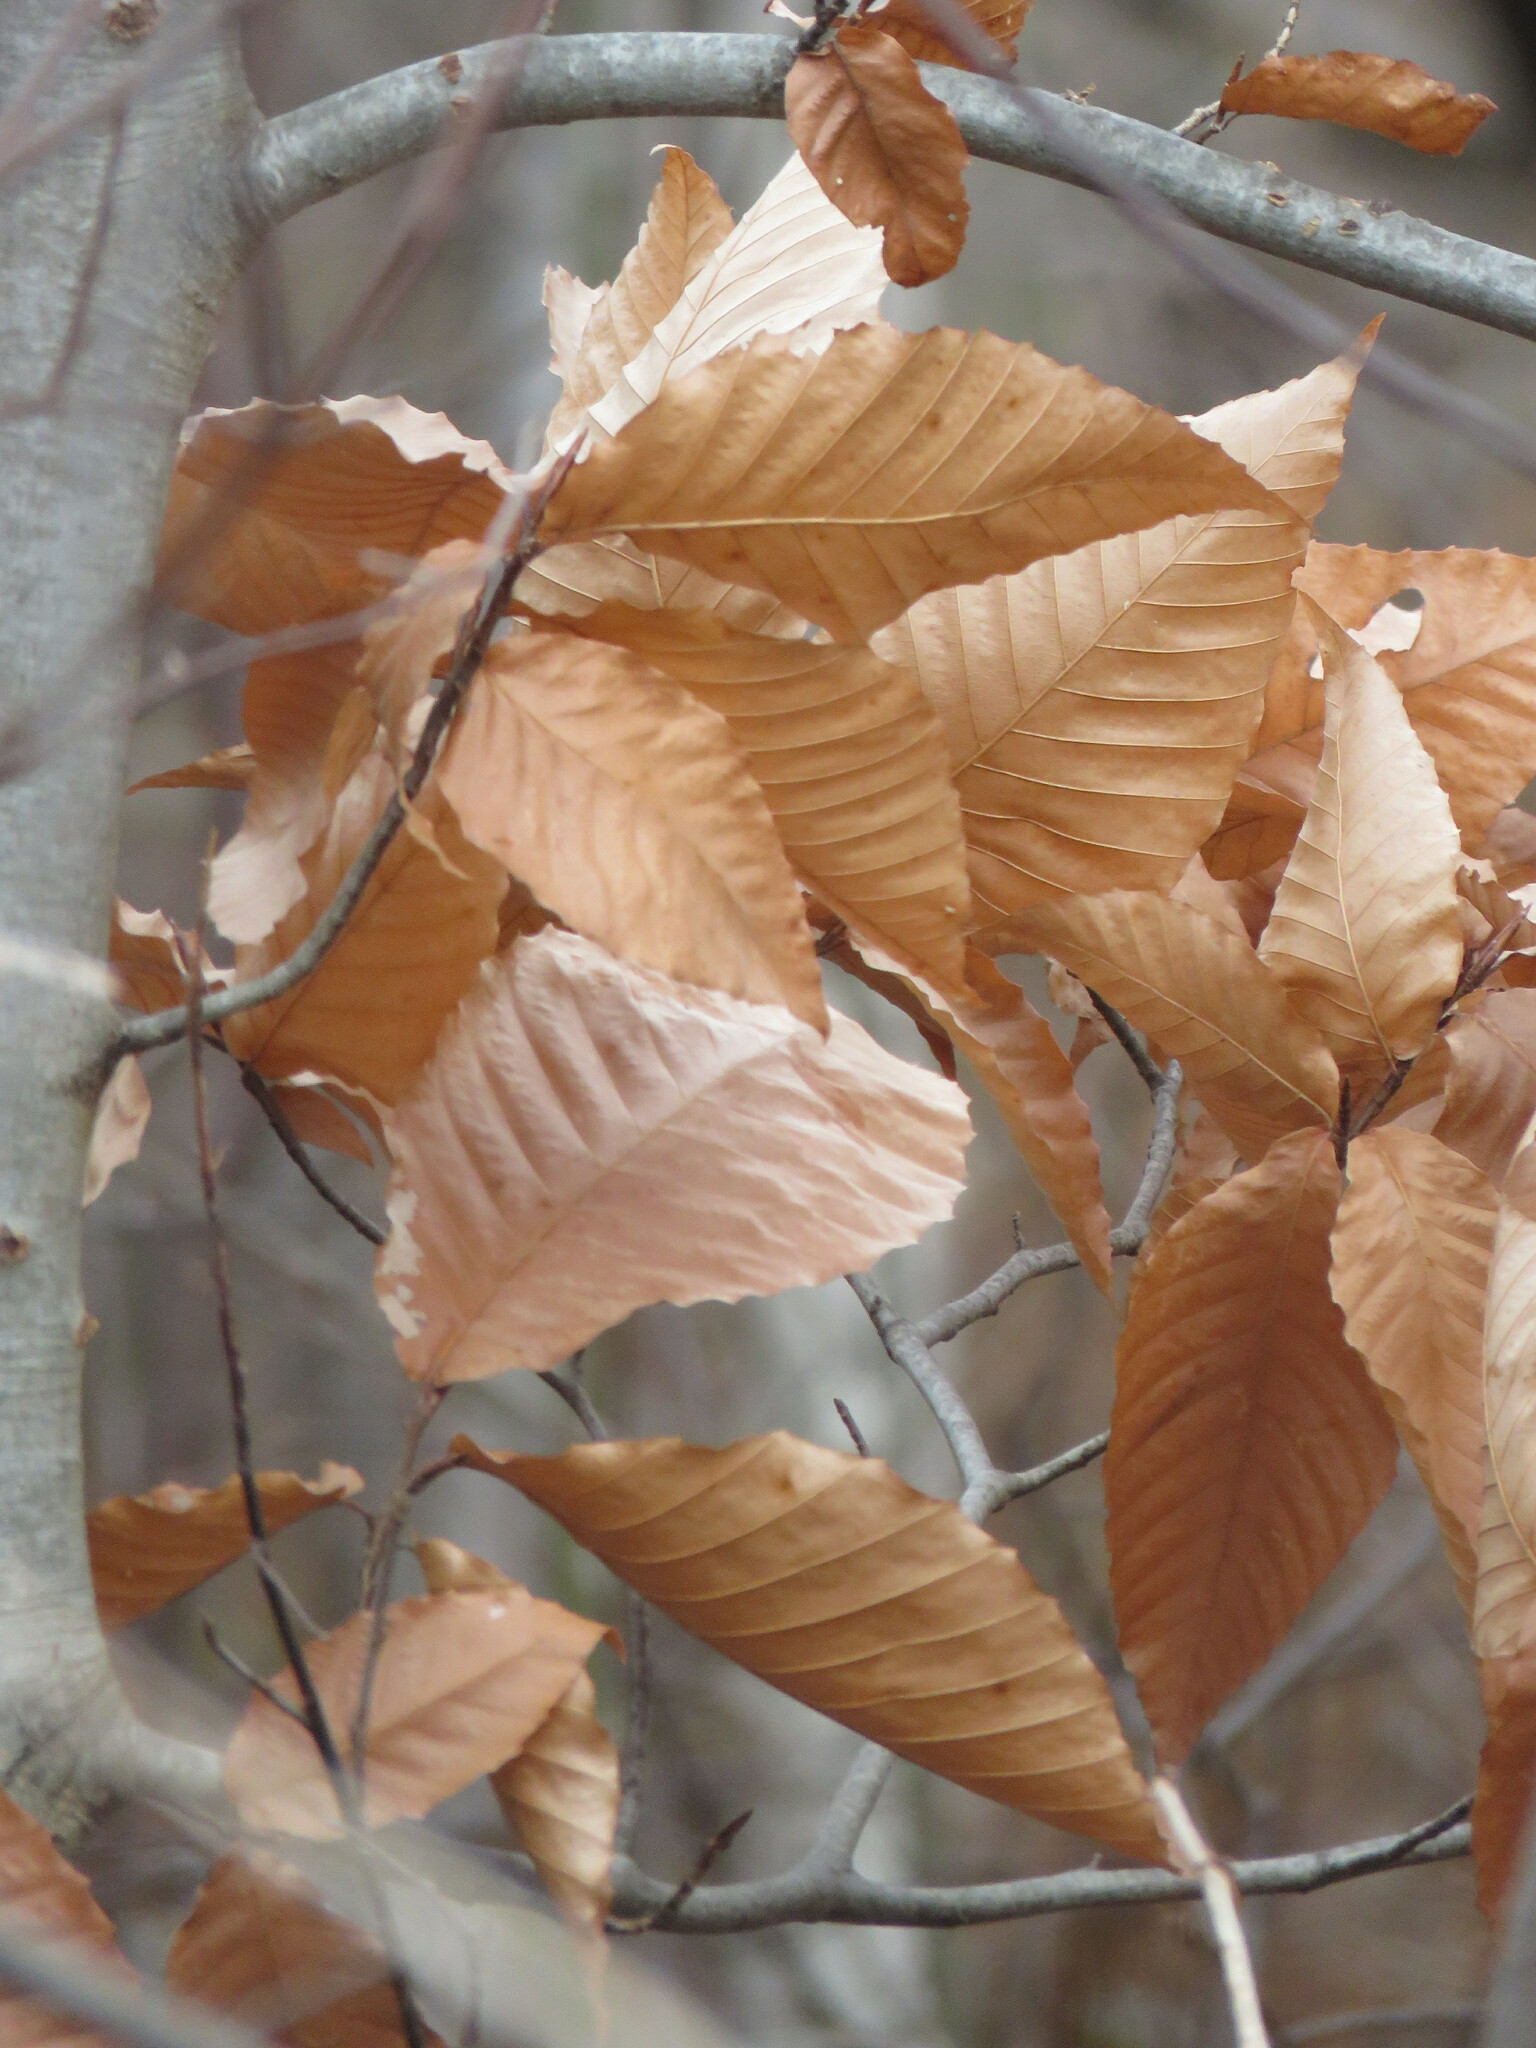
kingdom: Plantae
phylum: Tracheophyta
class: Magnoliopsida
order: Fagales
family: Fagaceae
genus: Fagus
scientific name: Fagus grandifolia
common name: American beech
